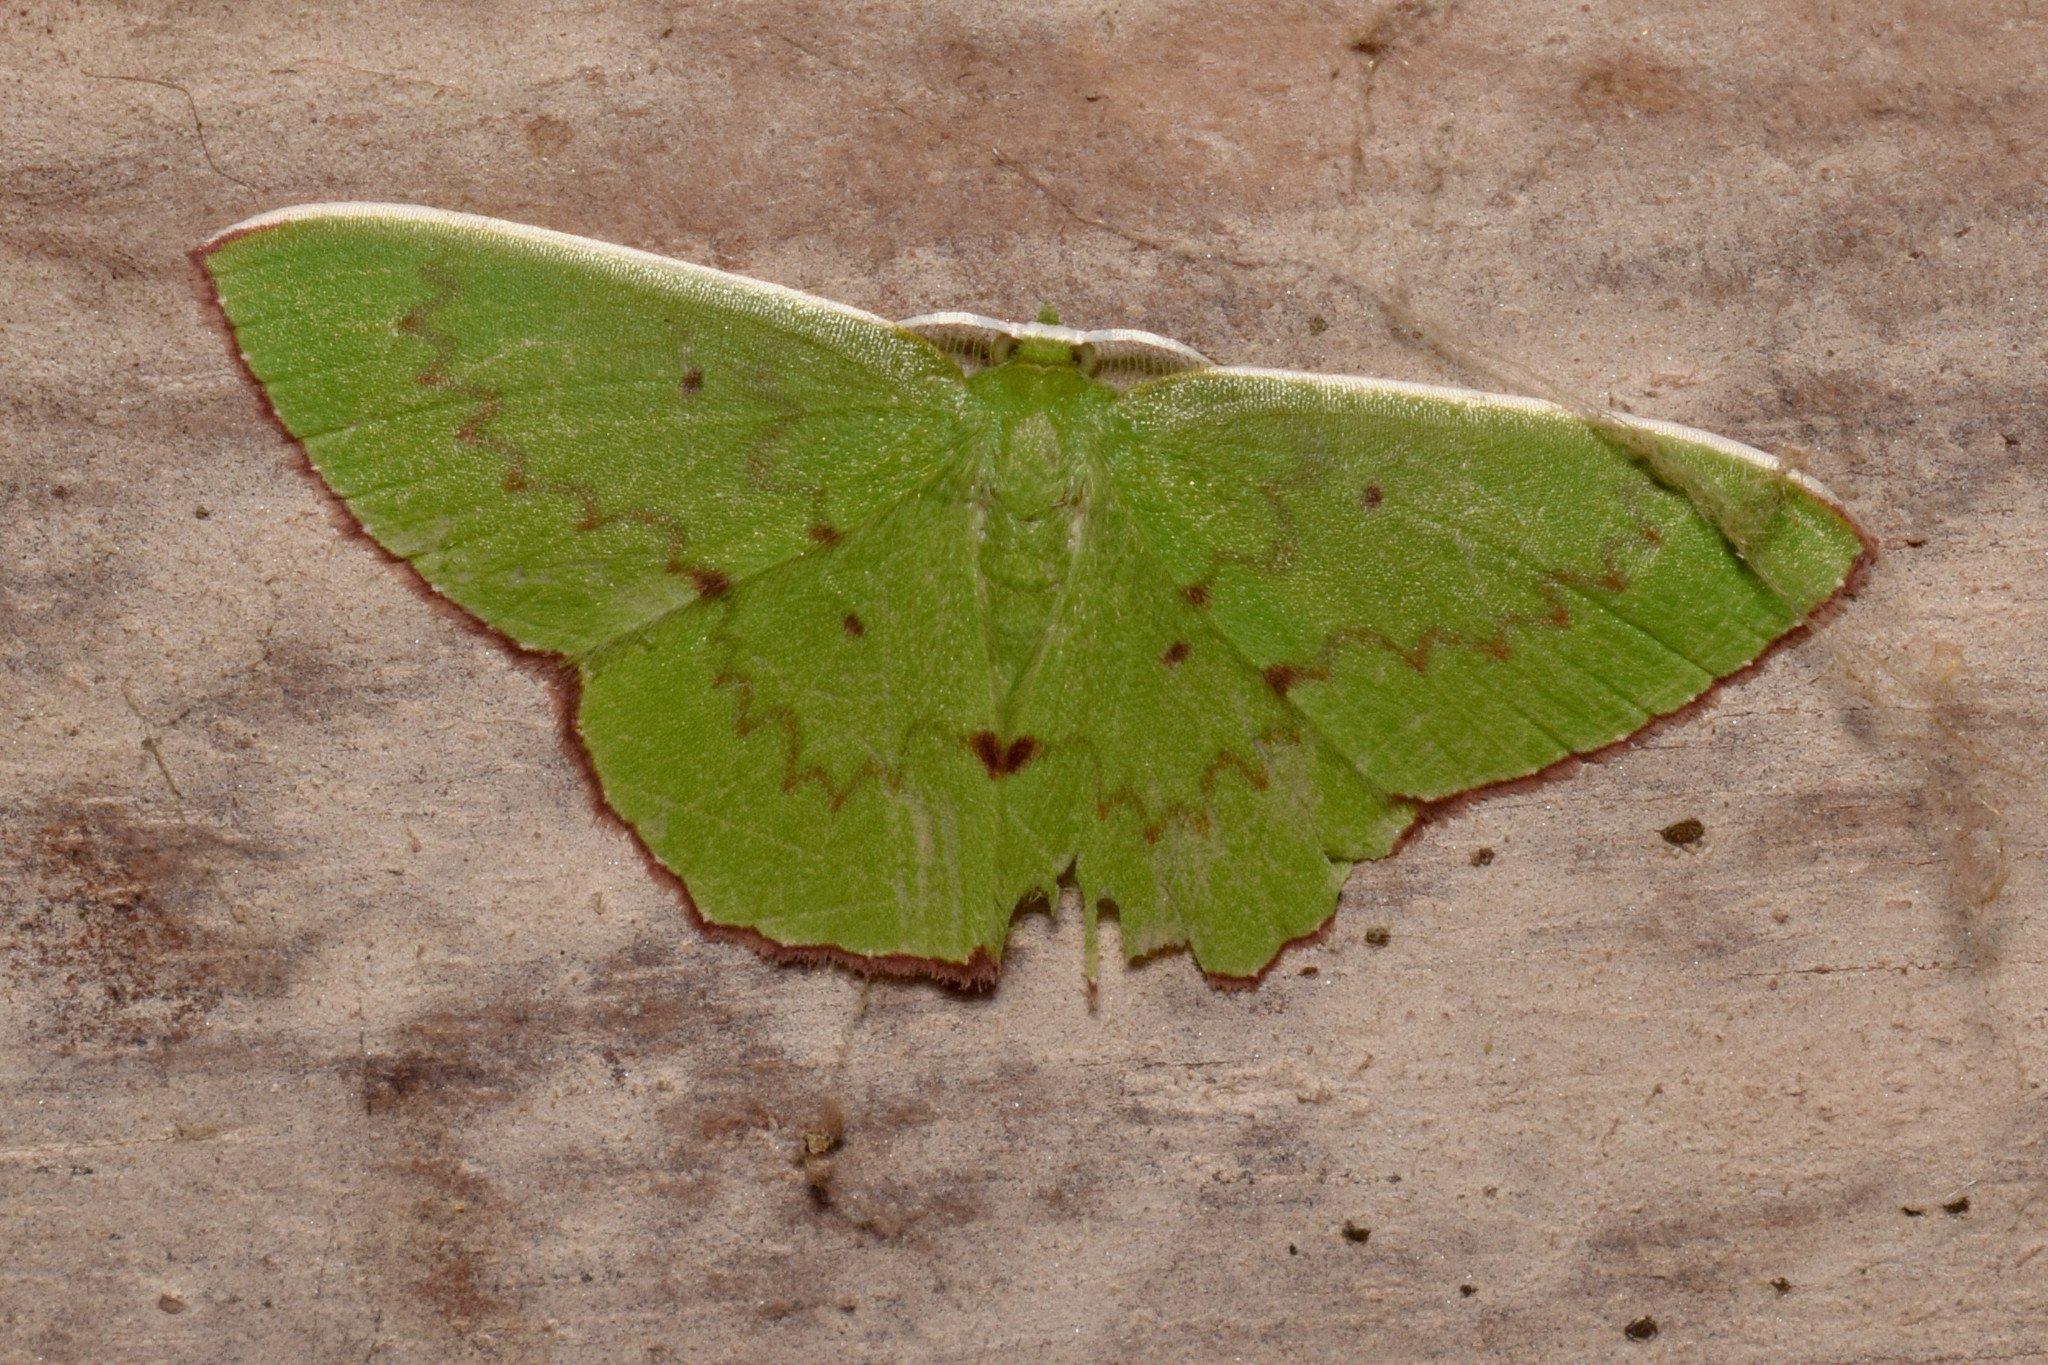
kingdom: Animalia
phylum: Arthropoda
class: Insecta
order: Lepidoptera
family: Geometridae
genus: Oenospila
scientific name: Oenospila flavifusata
